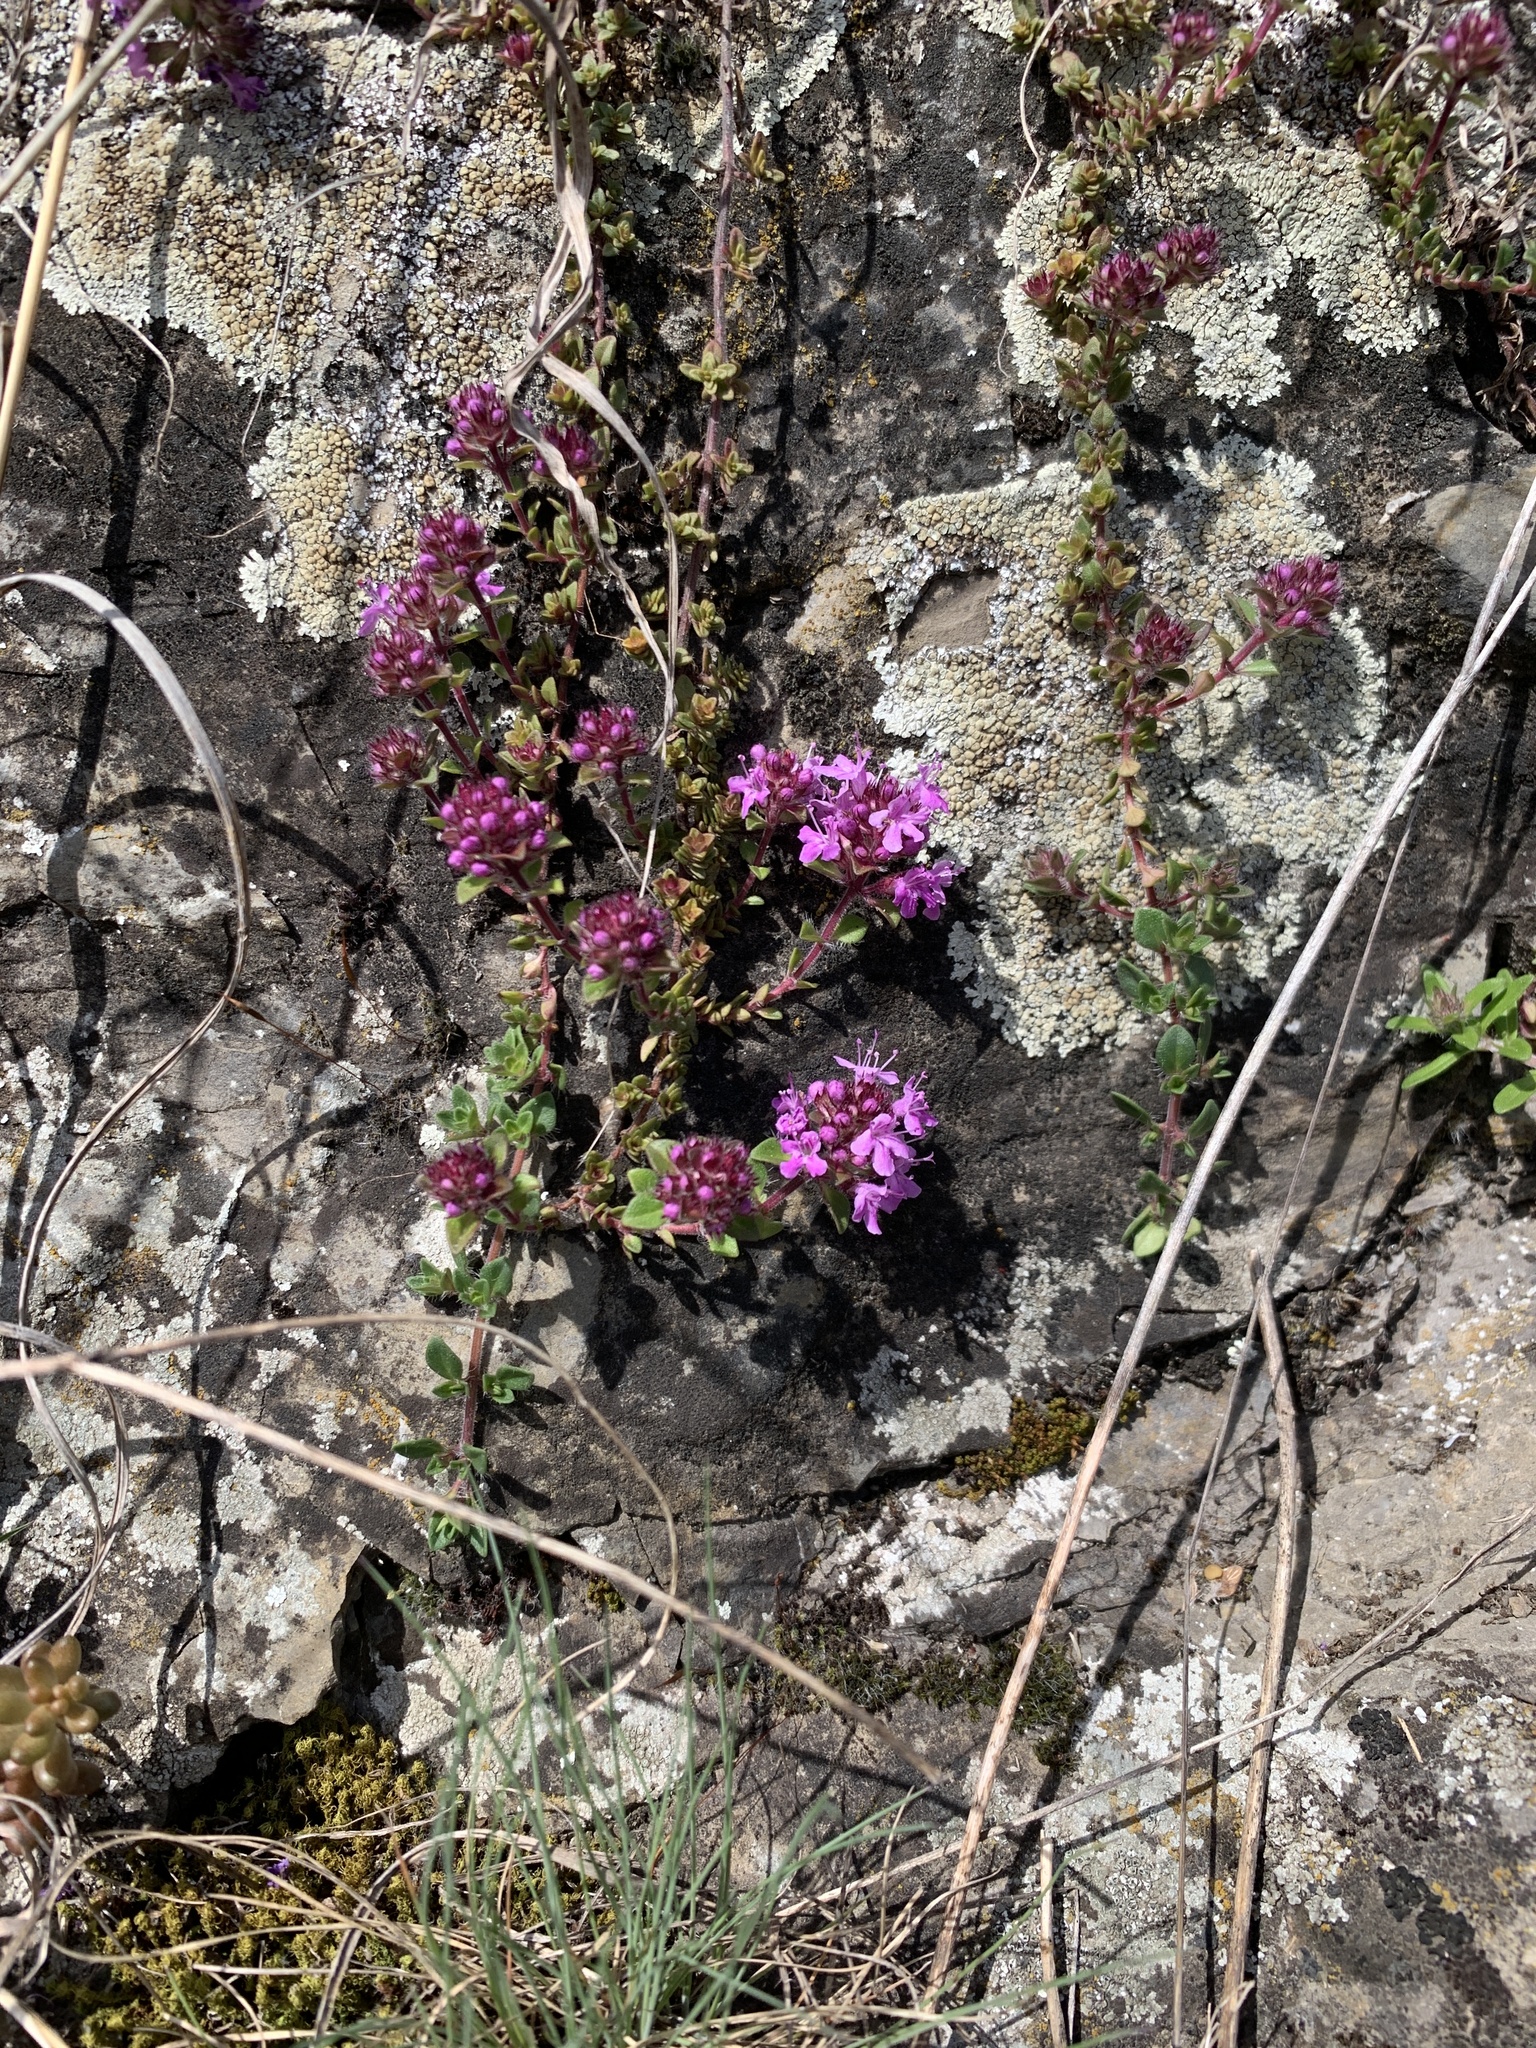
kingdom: Plantae
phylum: Tracheophyta
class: Magnoliopsida
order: Lamiales
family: Lamiaceae
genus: Thymus
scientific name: Thymus praecox
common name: Wild thyme
